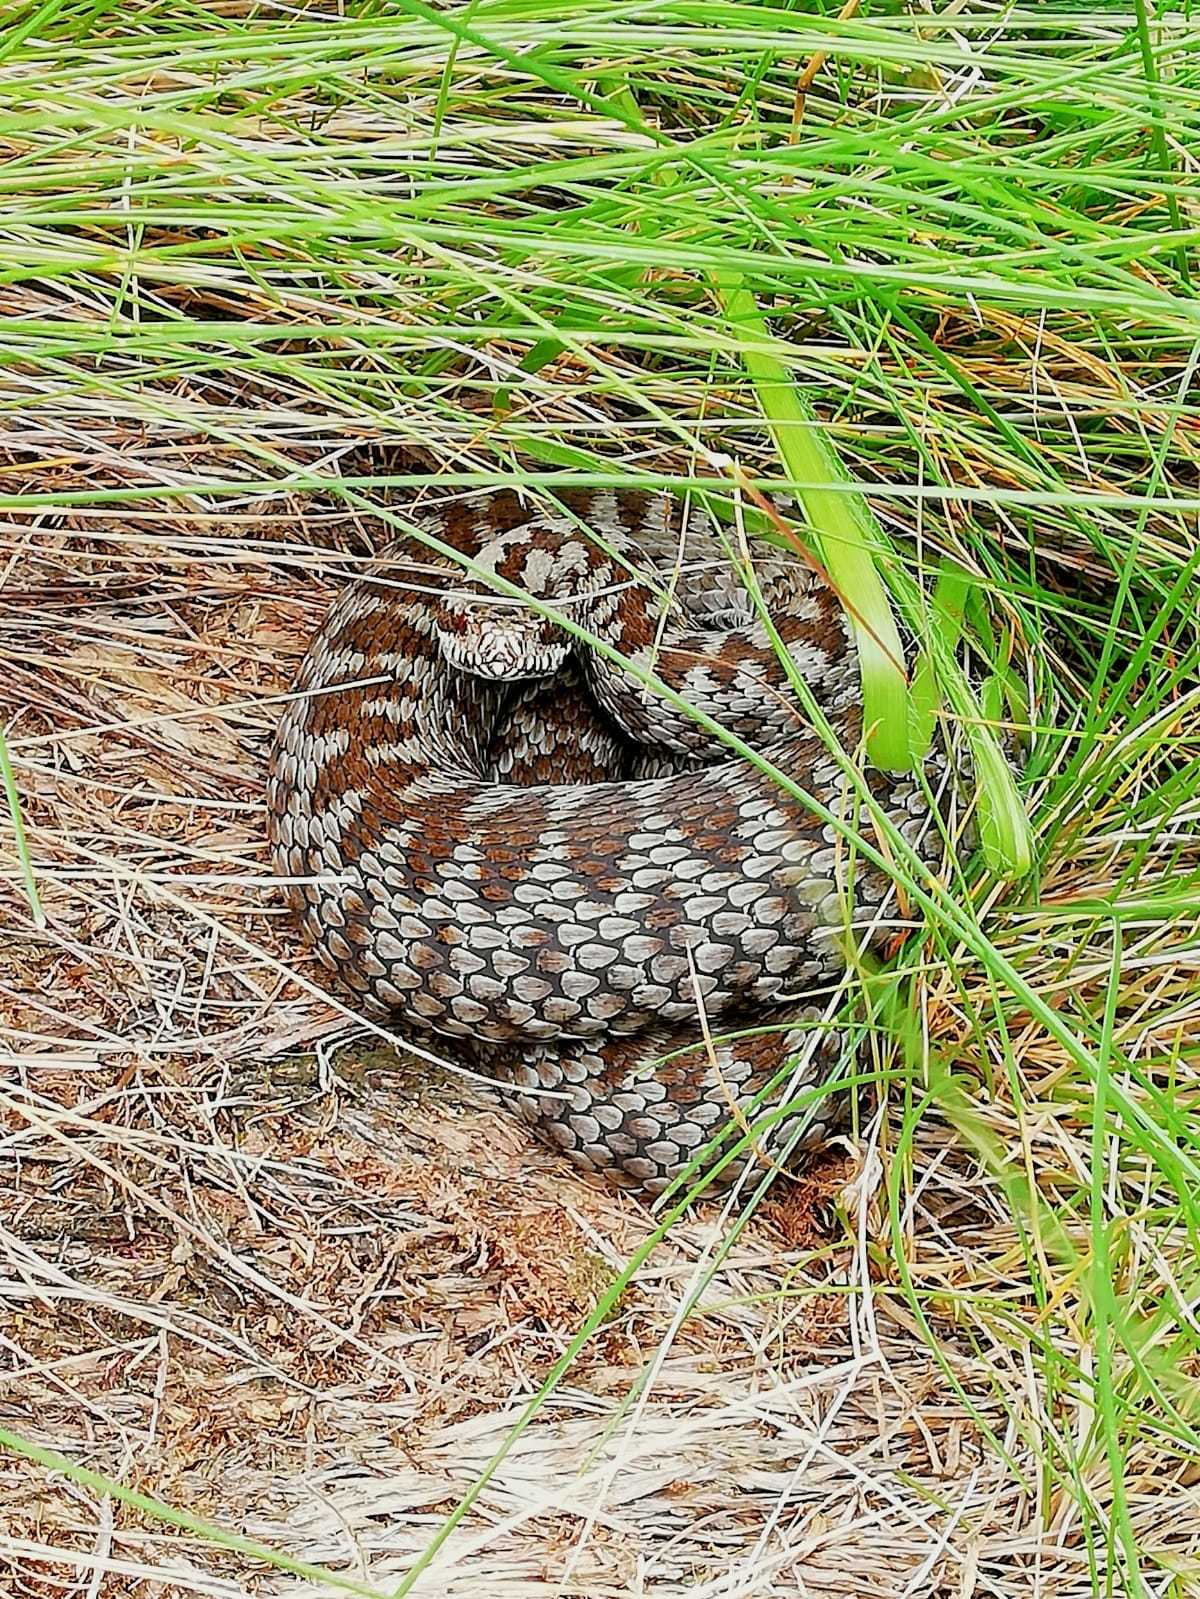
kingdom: Animalia
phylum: Chordata
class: Squamata
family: Viperidae
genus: Vipera
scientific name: Vipera walser
